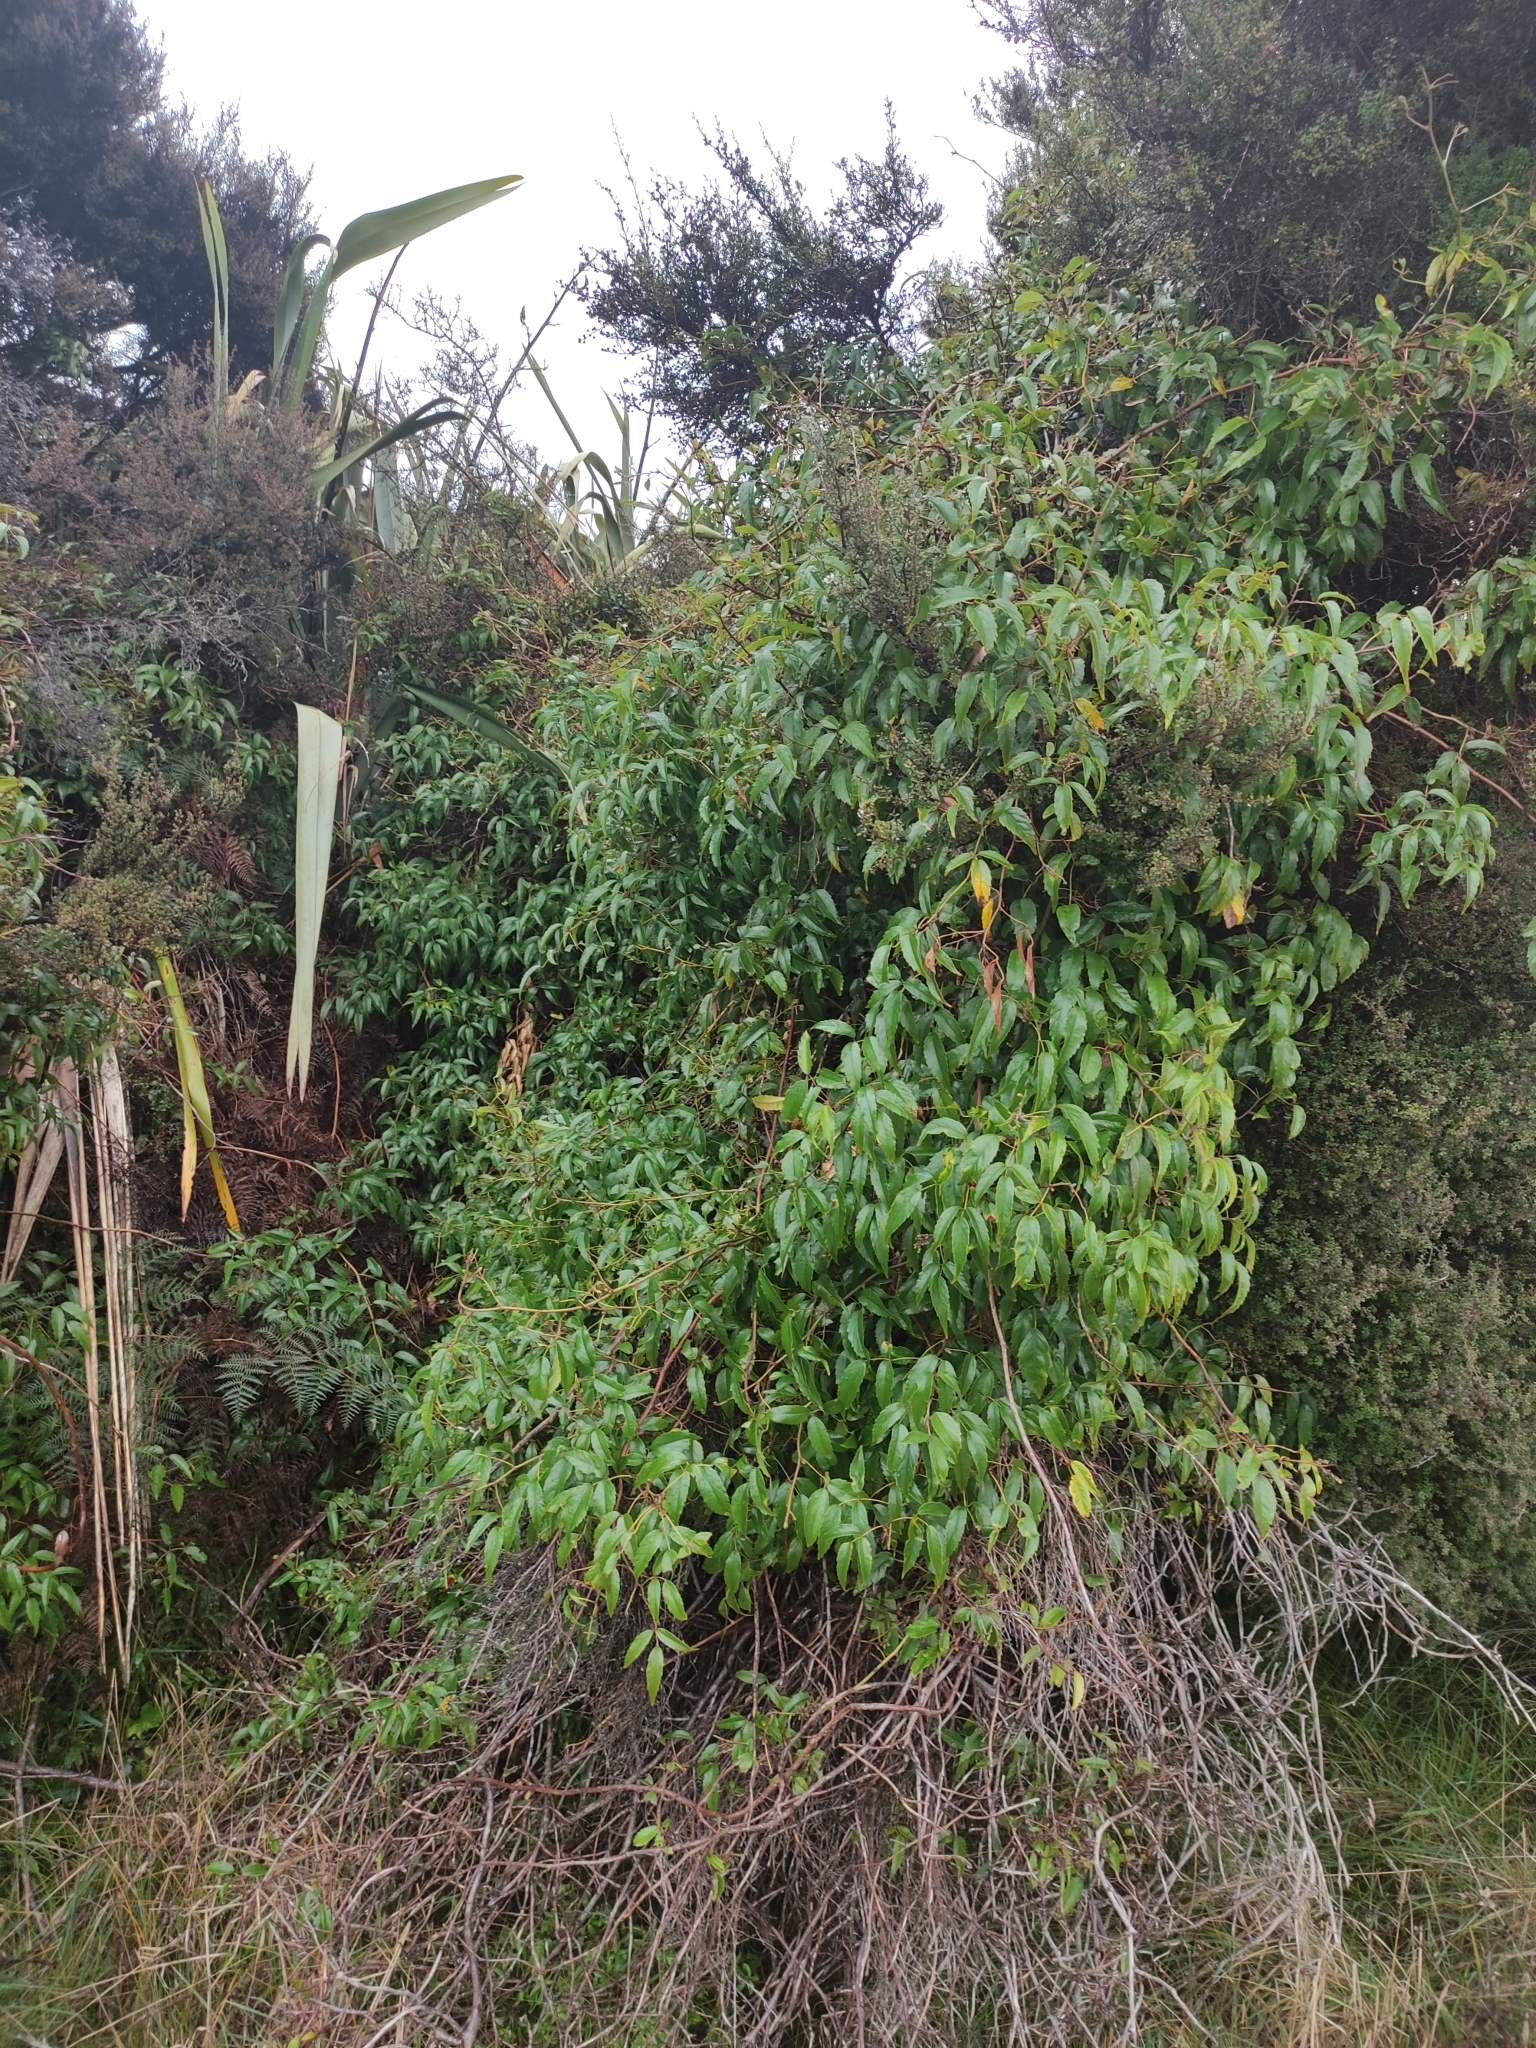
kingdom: Plantae
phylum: Tracheophyta
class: Magnoliopsida
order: Rosales
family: Rosaceae
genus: Rubus
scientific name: Rubus cissoides
